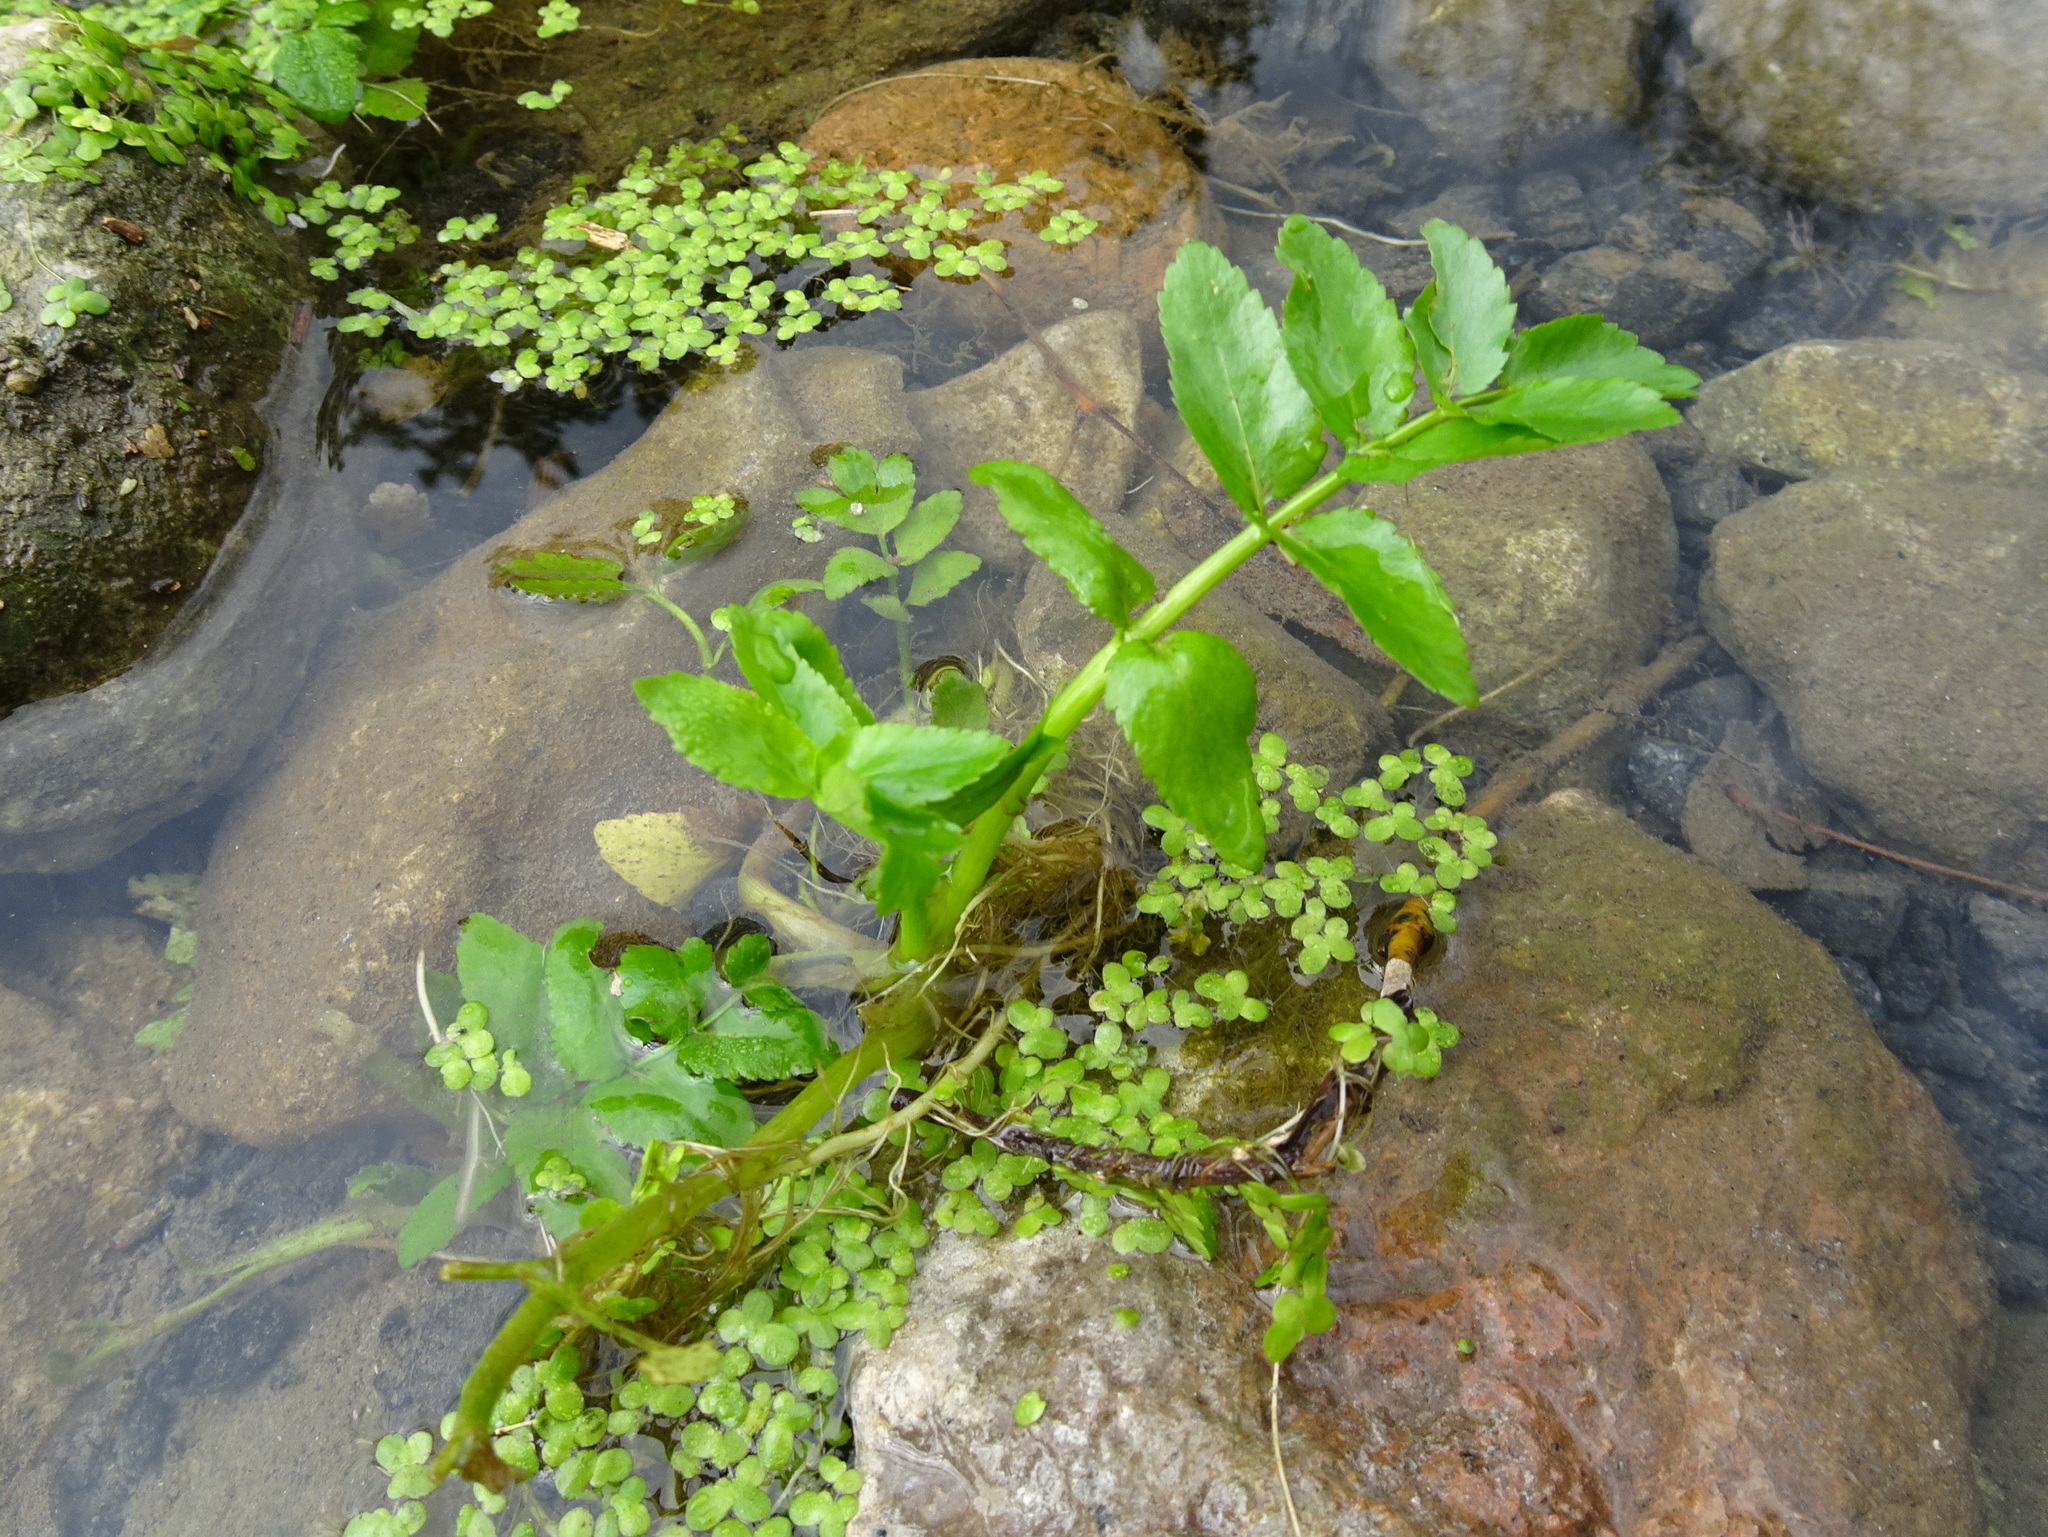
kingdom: Plantae
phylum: Tracheophyta
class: Magnoliopsida
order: Apiales
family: Apiaceae
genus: Helosciadium
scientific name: Helosciadium nodiflorum
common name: Fool's-watercress
